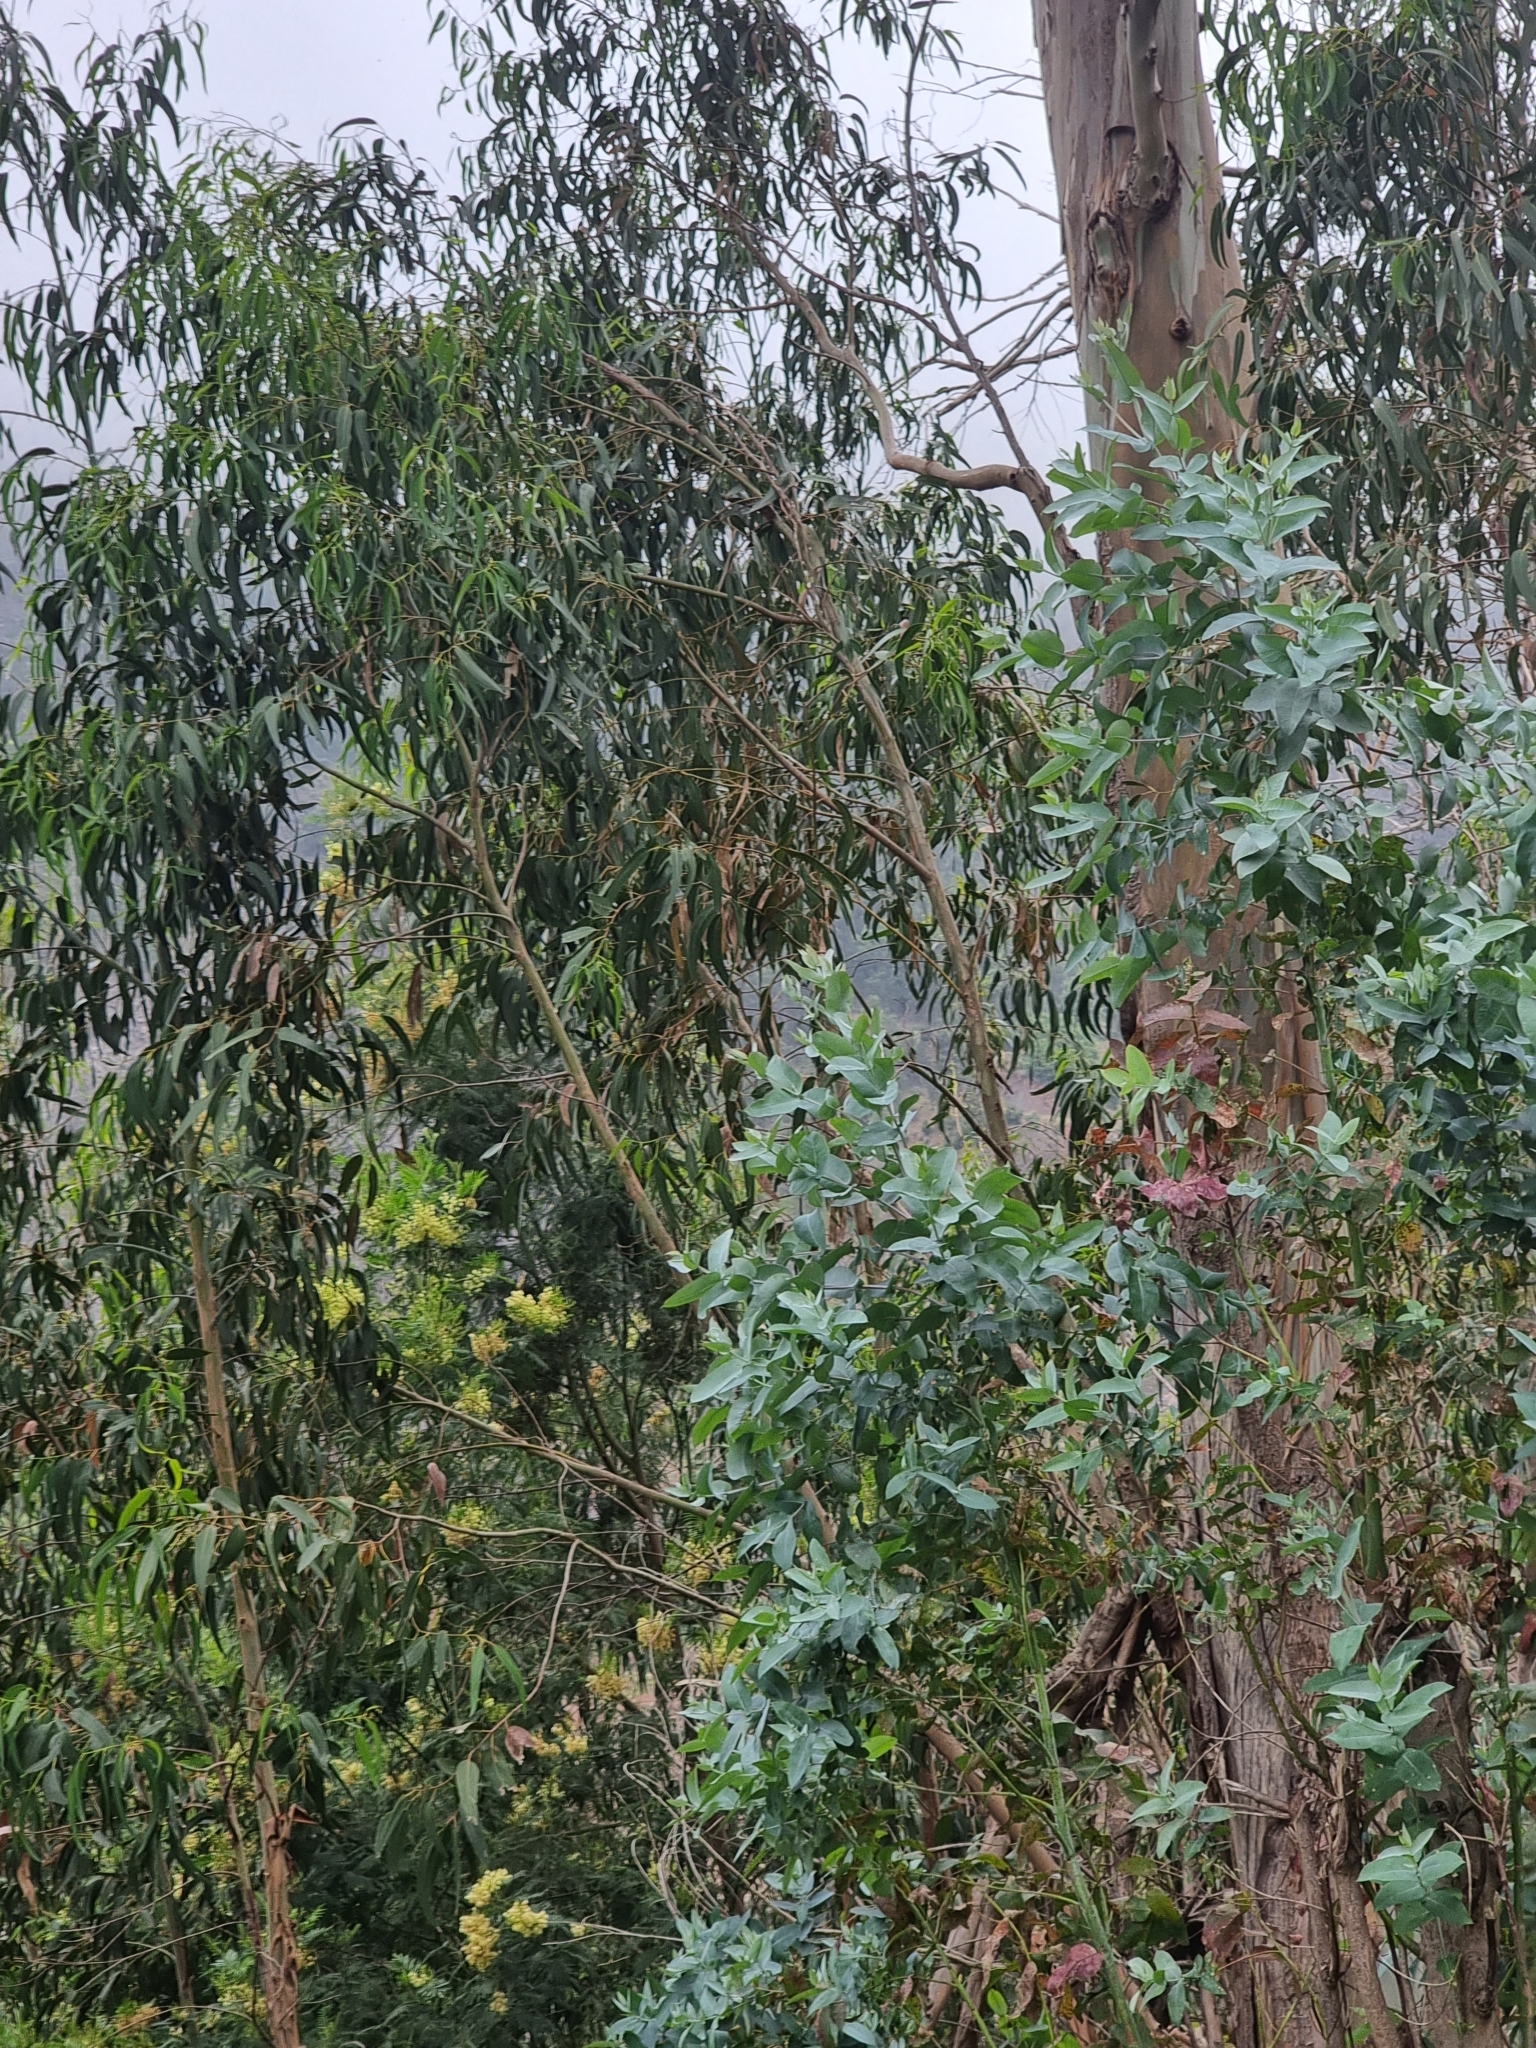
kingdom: Plantae
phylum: Tracheophyta
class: Magnoliopsida
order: Myrtales
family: Myrtaceae
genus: Eucalyptus
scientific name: Eucalyptus globulus
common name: Southern blue-gum
